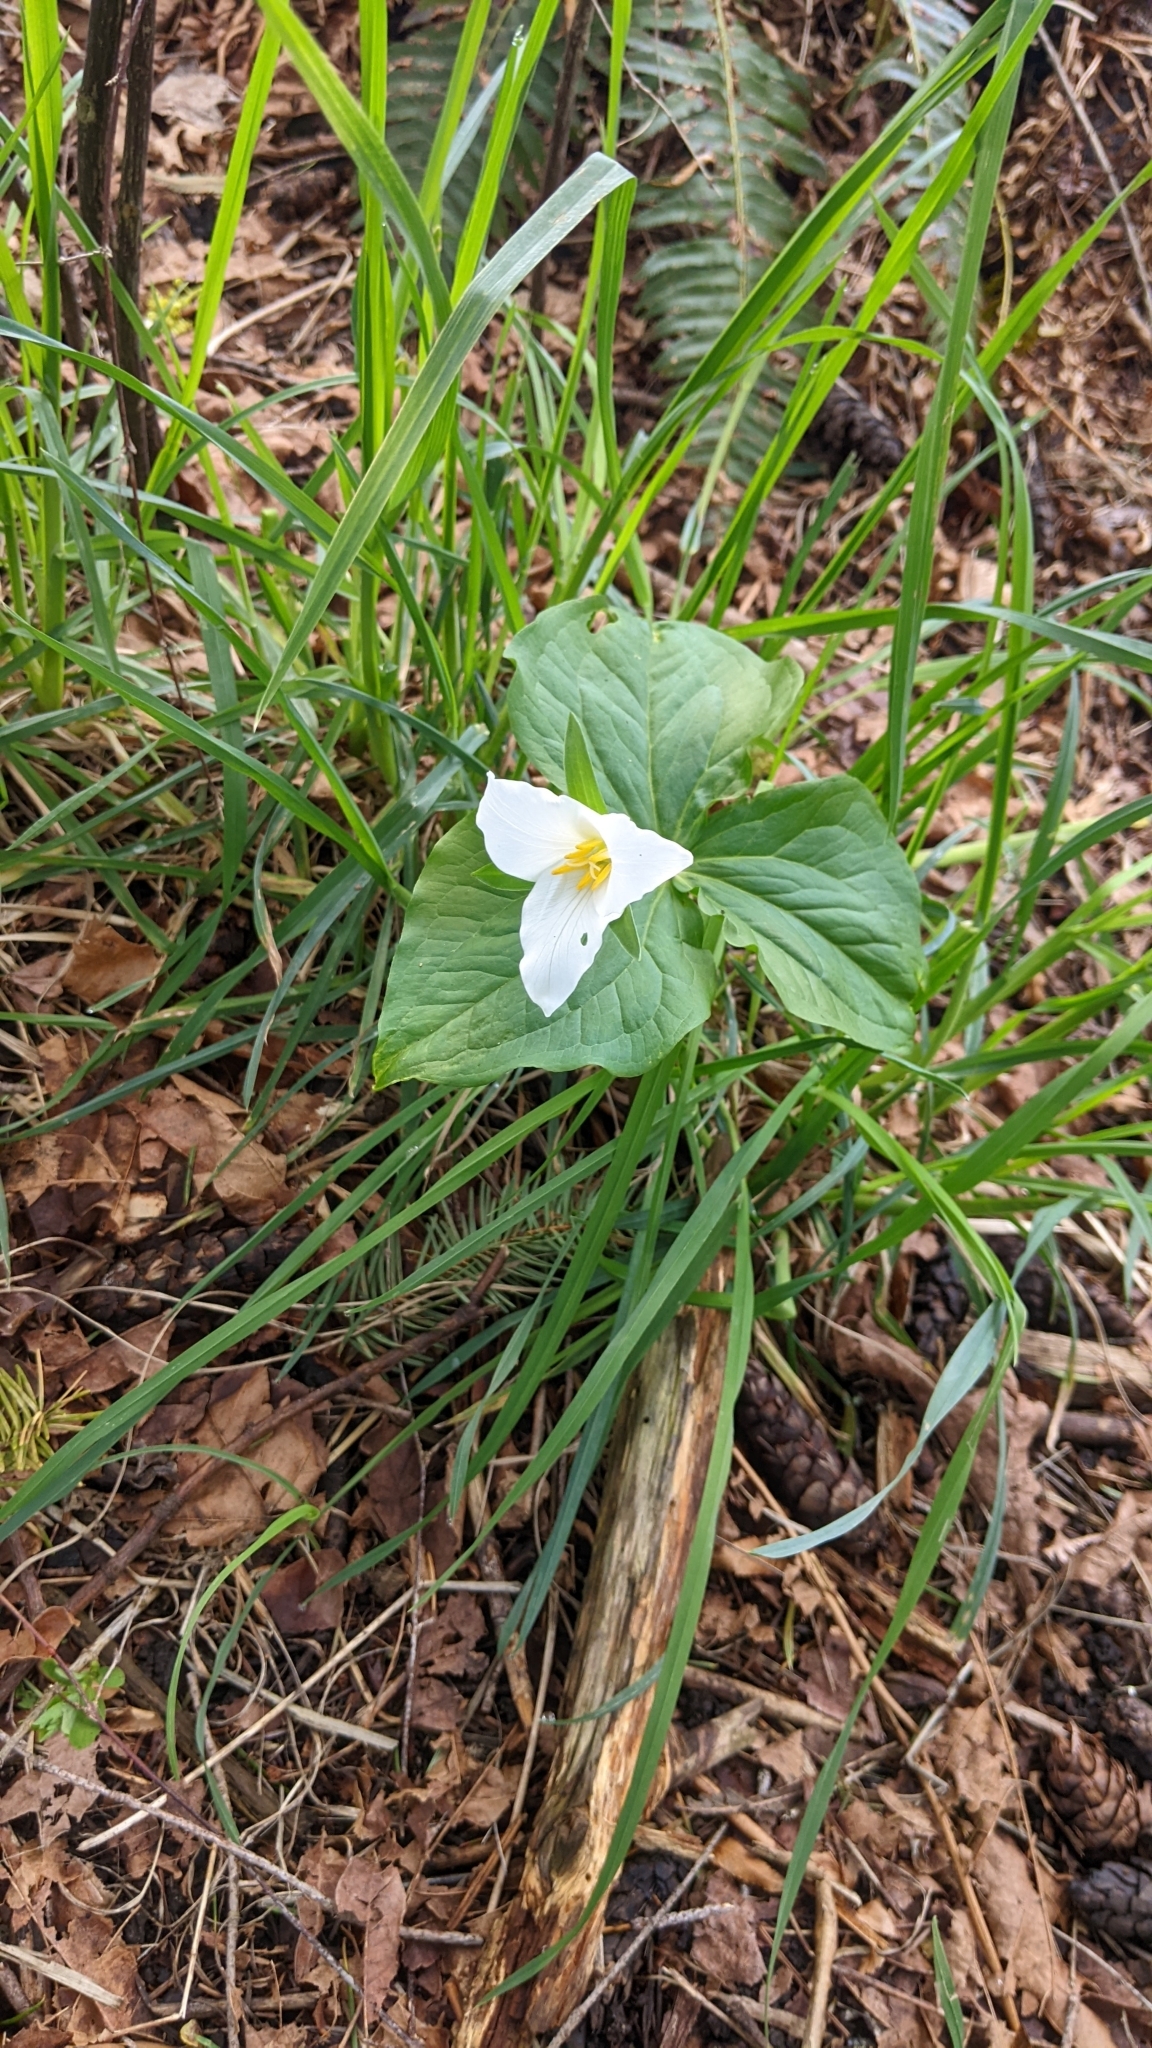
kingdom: Plantae
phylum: Tracheophyta
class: Liliopsida
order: Liliales
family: Melanthiaceae
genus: Trillium
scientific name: Trillium ovatum
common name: Pacific trillium
